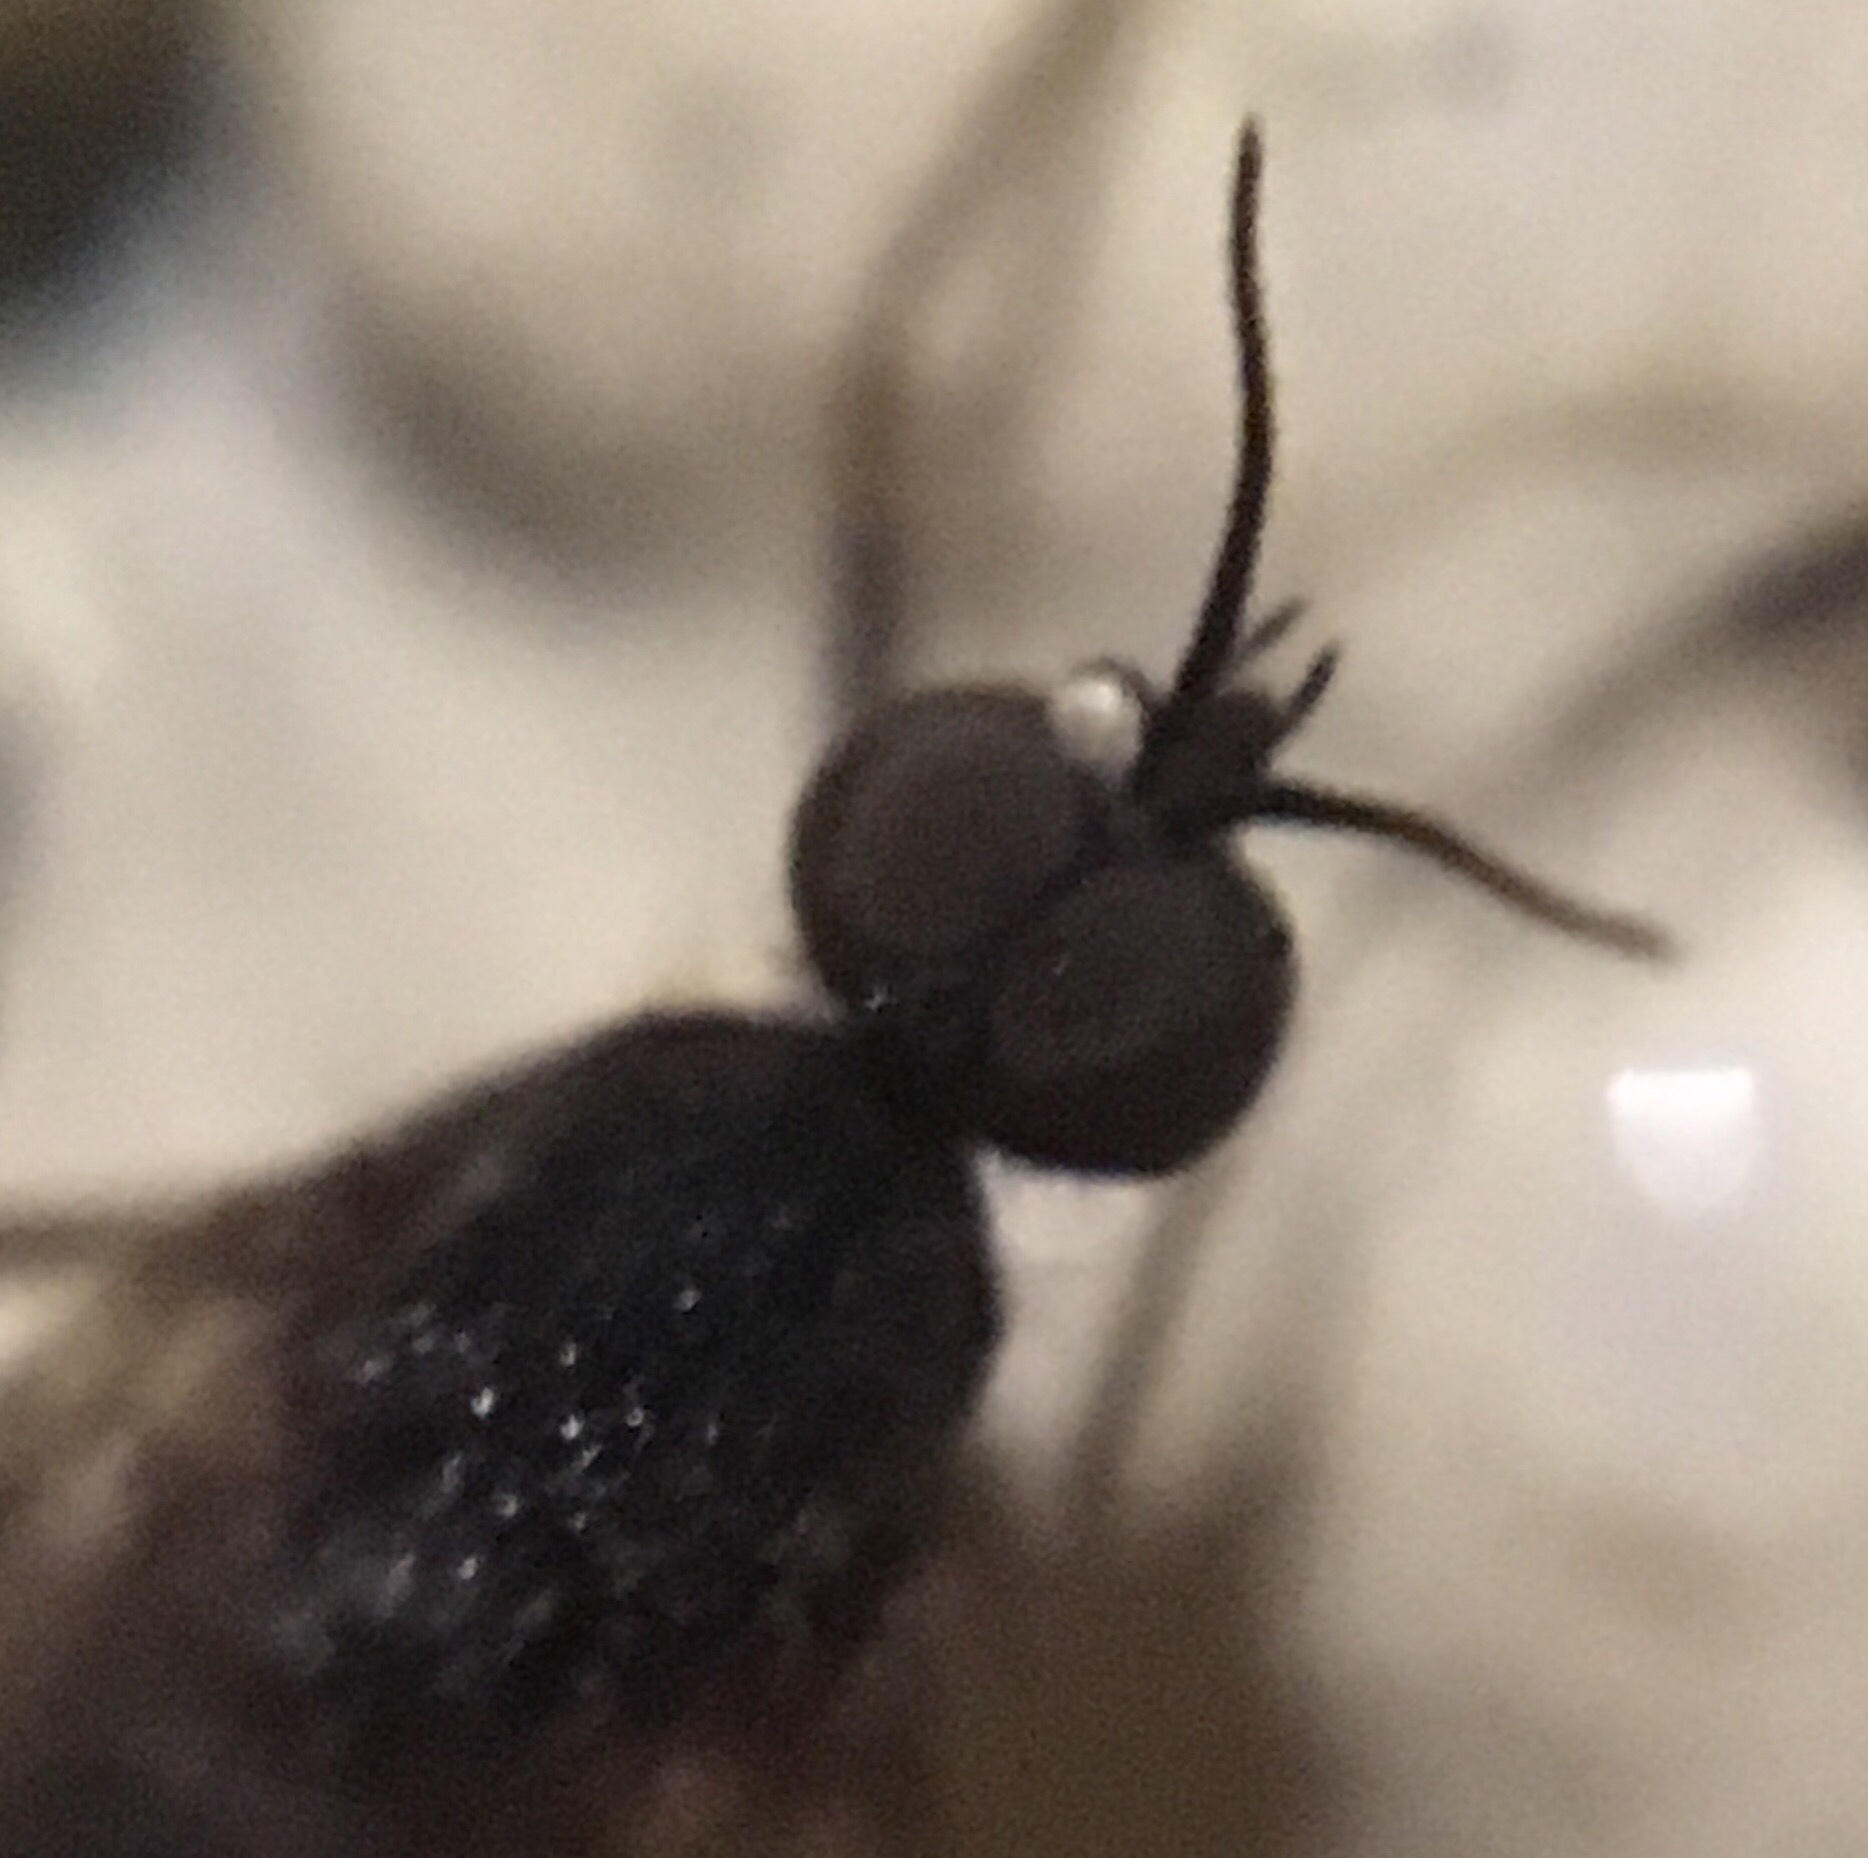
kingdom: Animalia
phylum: Arthropoda
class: Insecta
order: Diptera
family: Anisopodidae
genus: Sylvicola
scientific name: Sylvicola alternata
